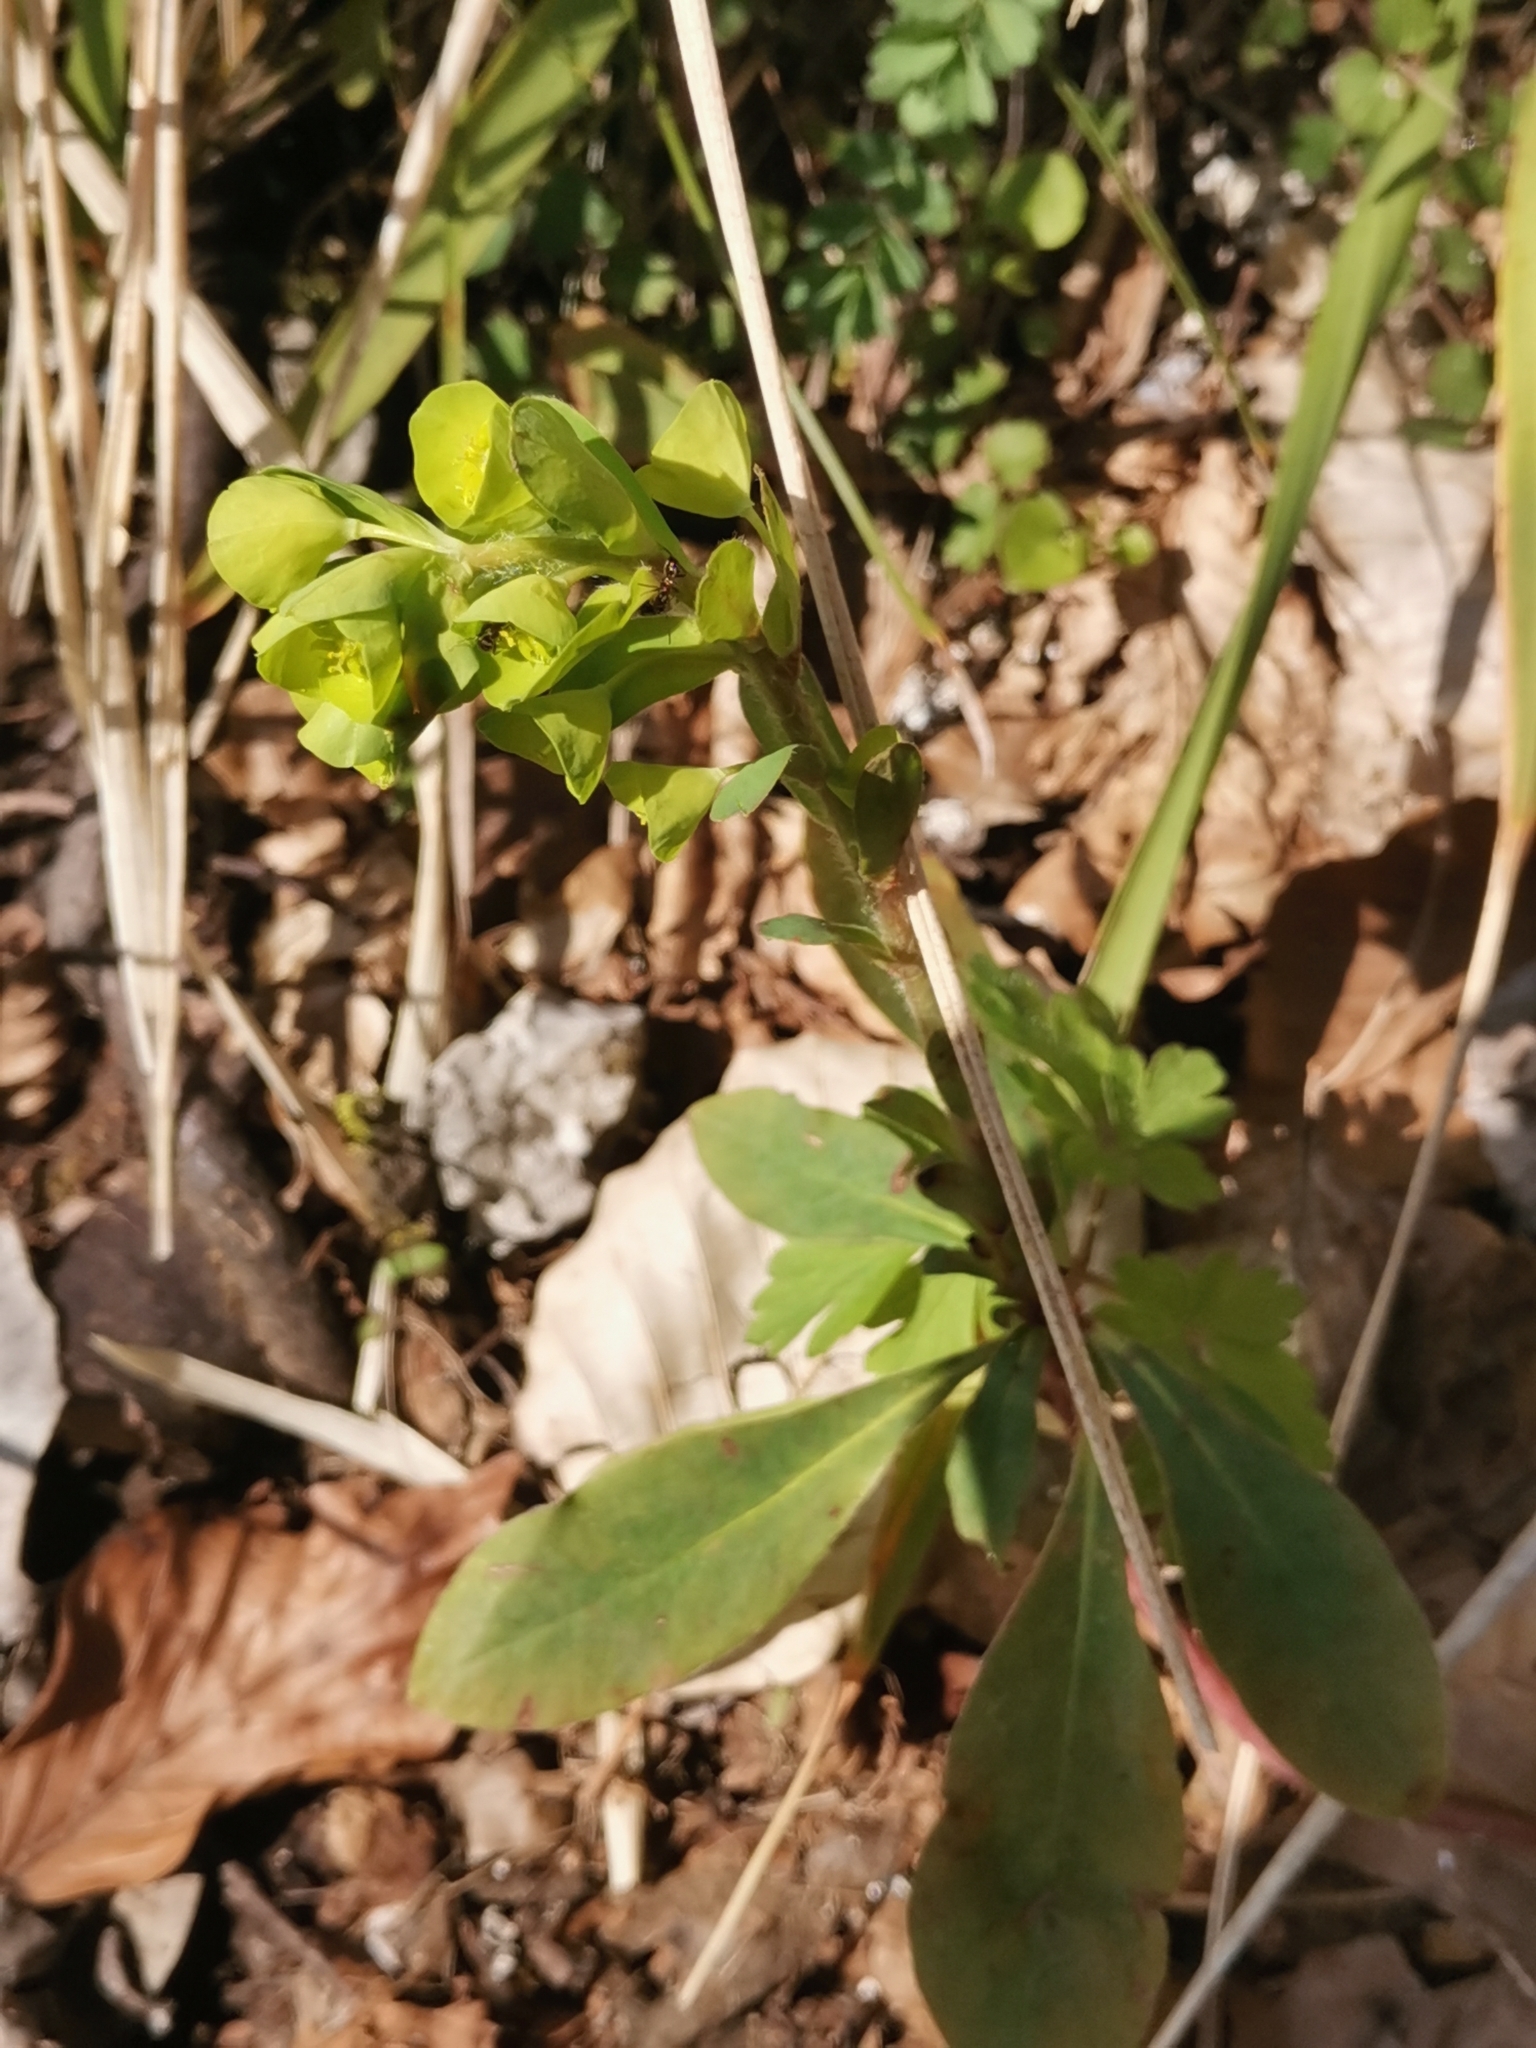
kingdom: Plantae
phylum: Tracheophyta
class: Magnoliopsida
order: Malpighiales
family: Euphorbiaceae
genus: Euphorbia
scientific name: Euphorbia amygdaloides
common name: Wood spurge
